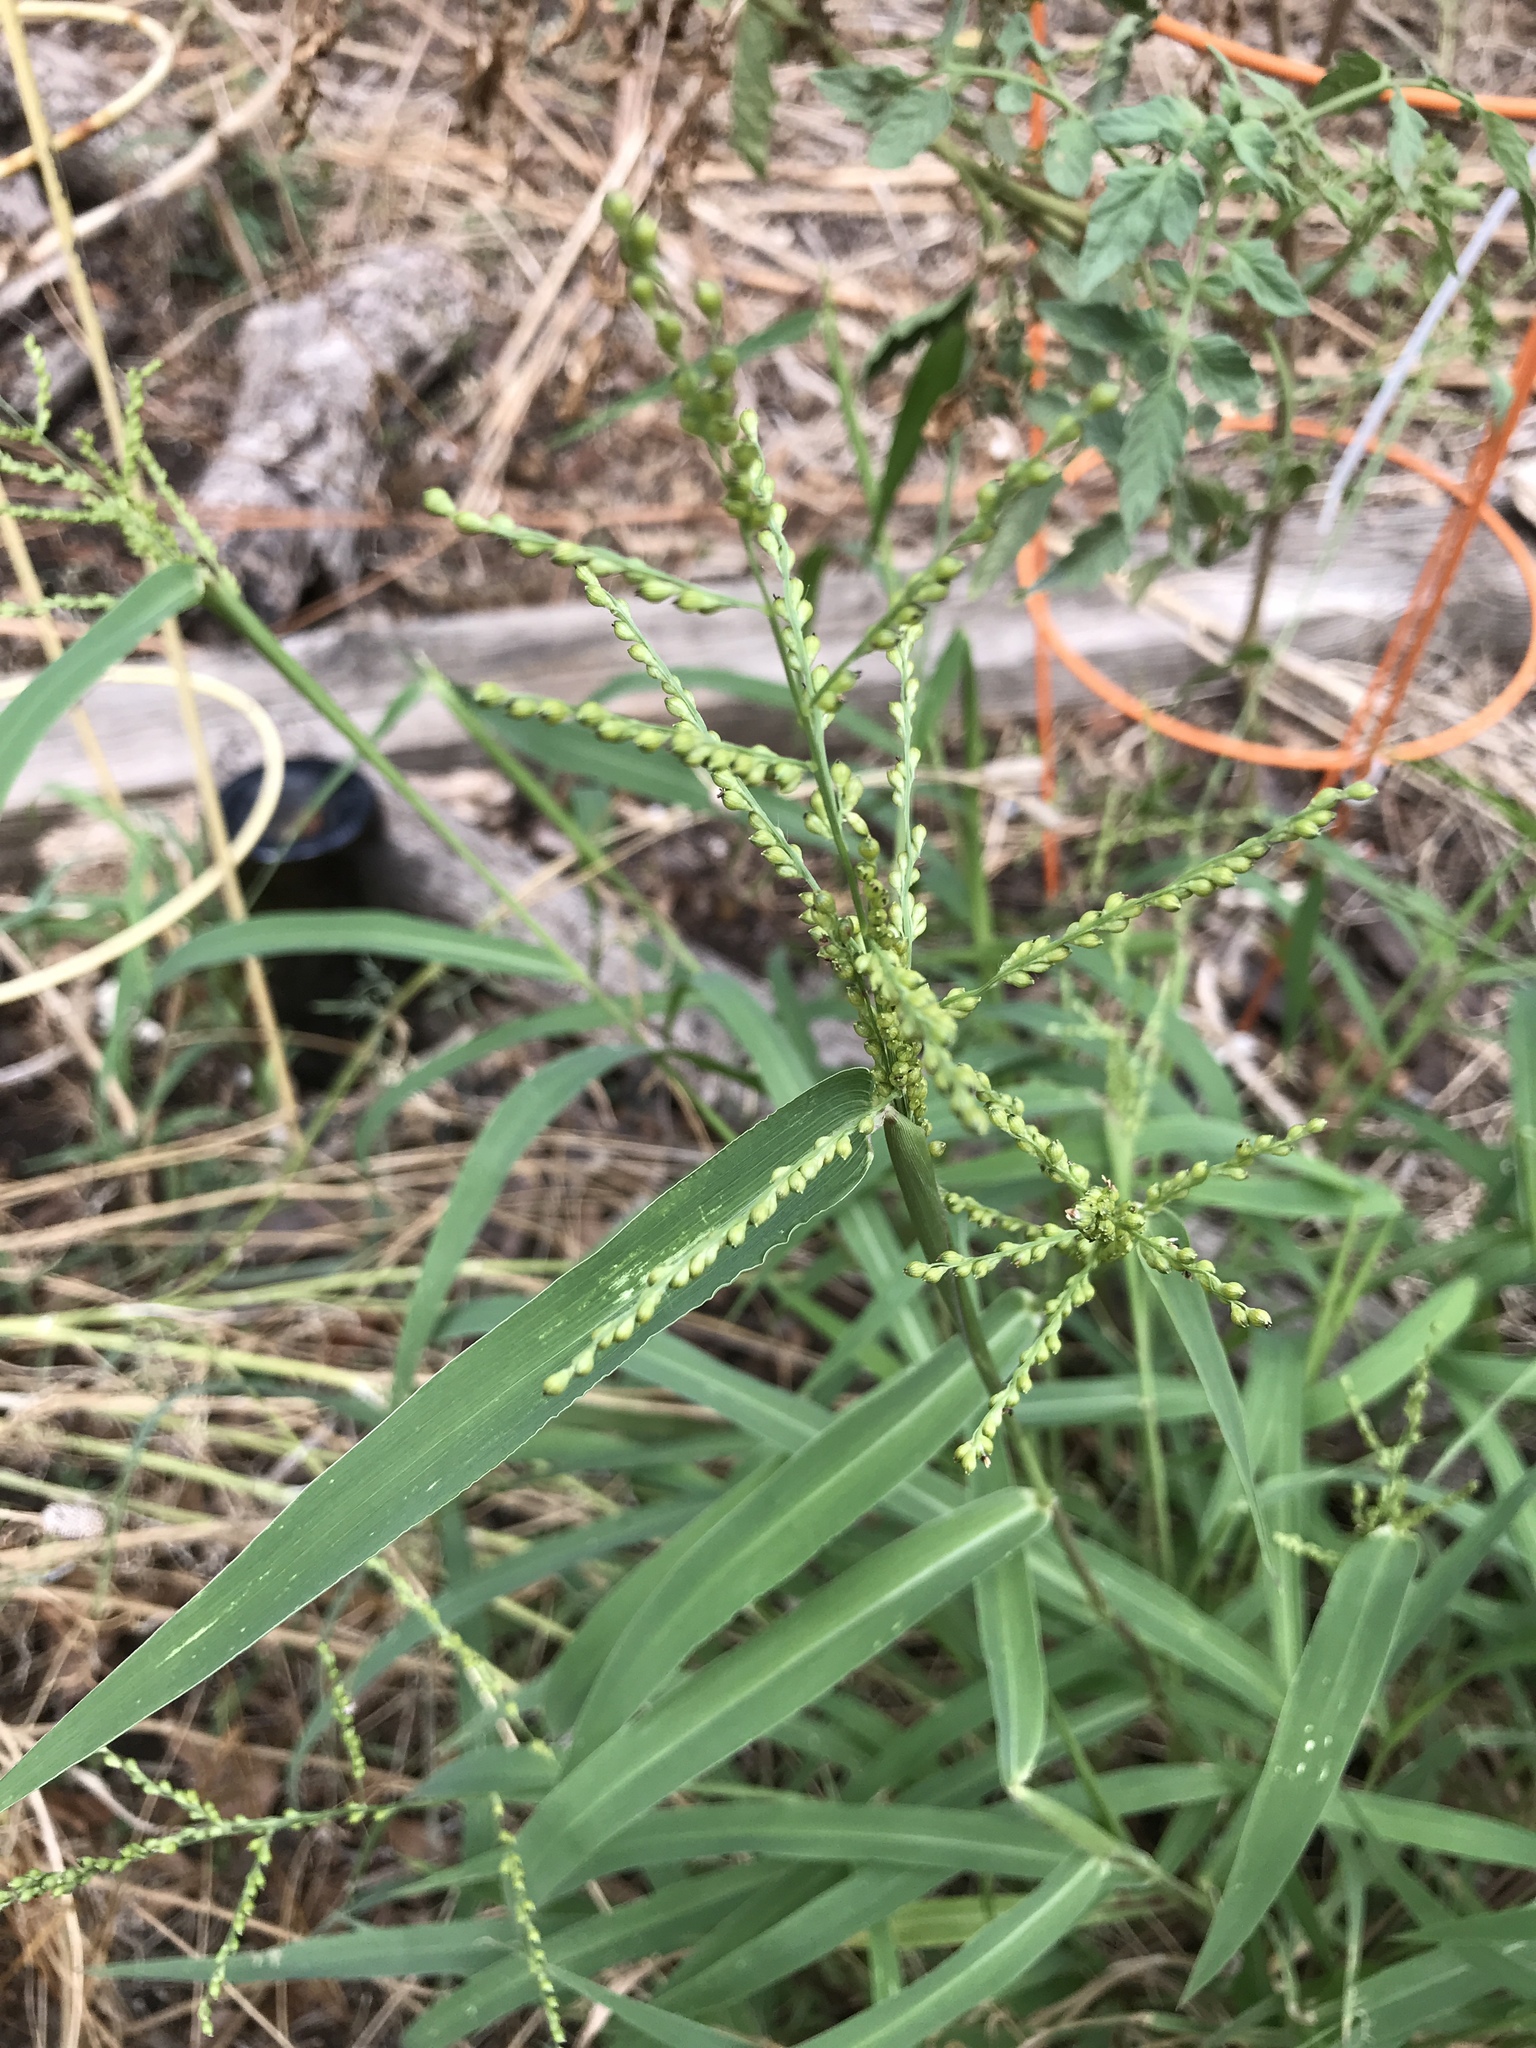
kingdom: Plantae
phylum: Tracheophyta
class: Liliopsida
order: Poales
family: Poaceae
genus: Urochloa
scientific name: Urochloa fusca
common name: Browntop signal grass
